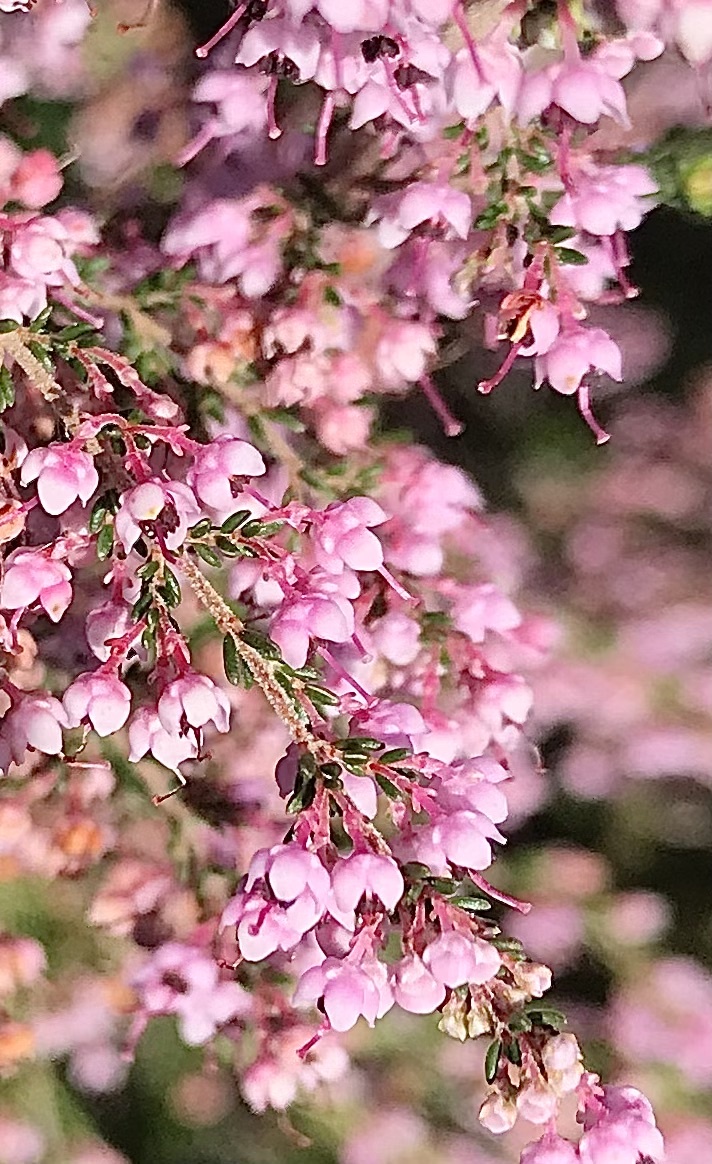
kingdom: Plantae
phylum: Tracheophyta
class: Magnoliopsida
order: Ericales
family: Ericaceae
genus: Erica
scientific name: Erica sparsa
